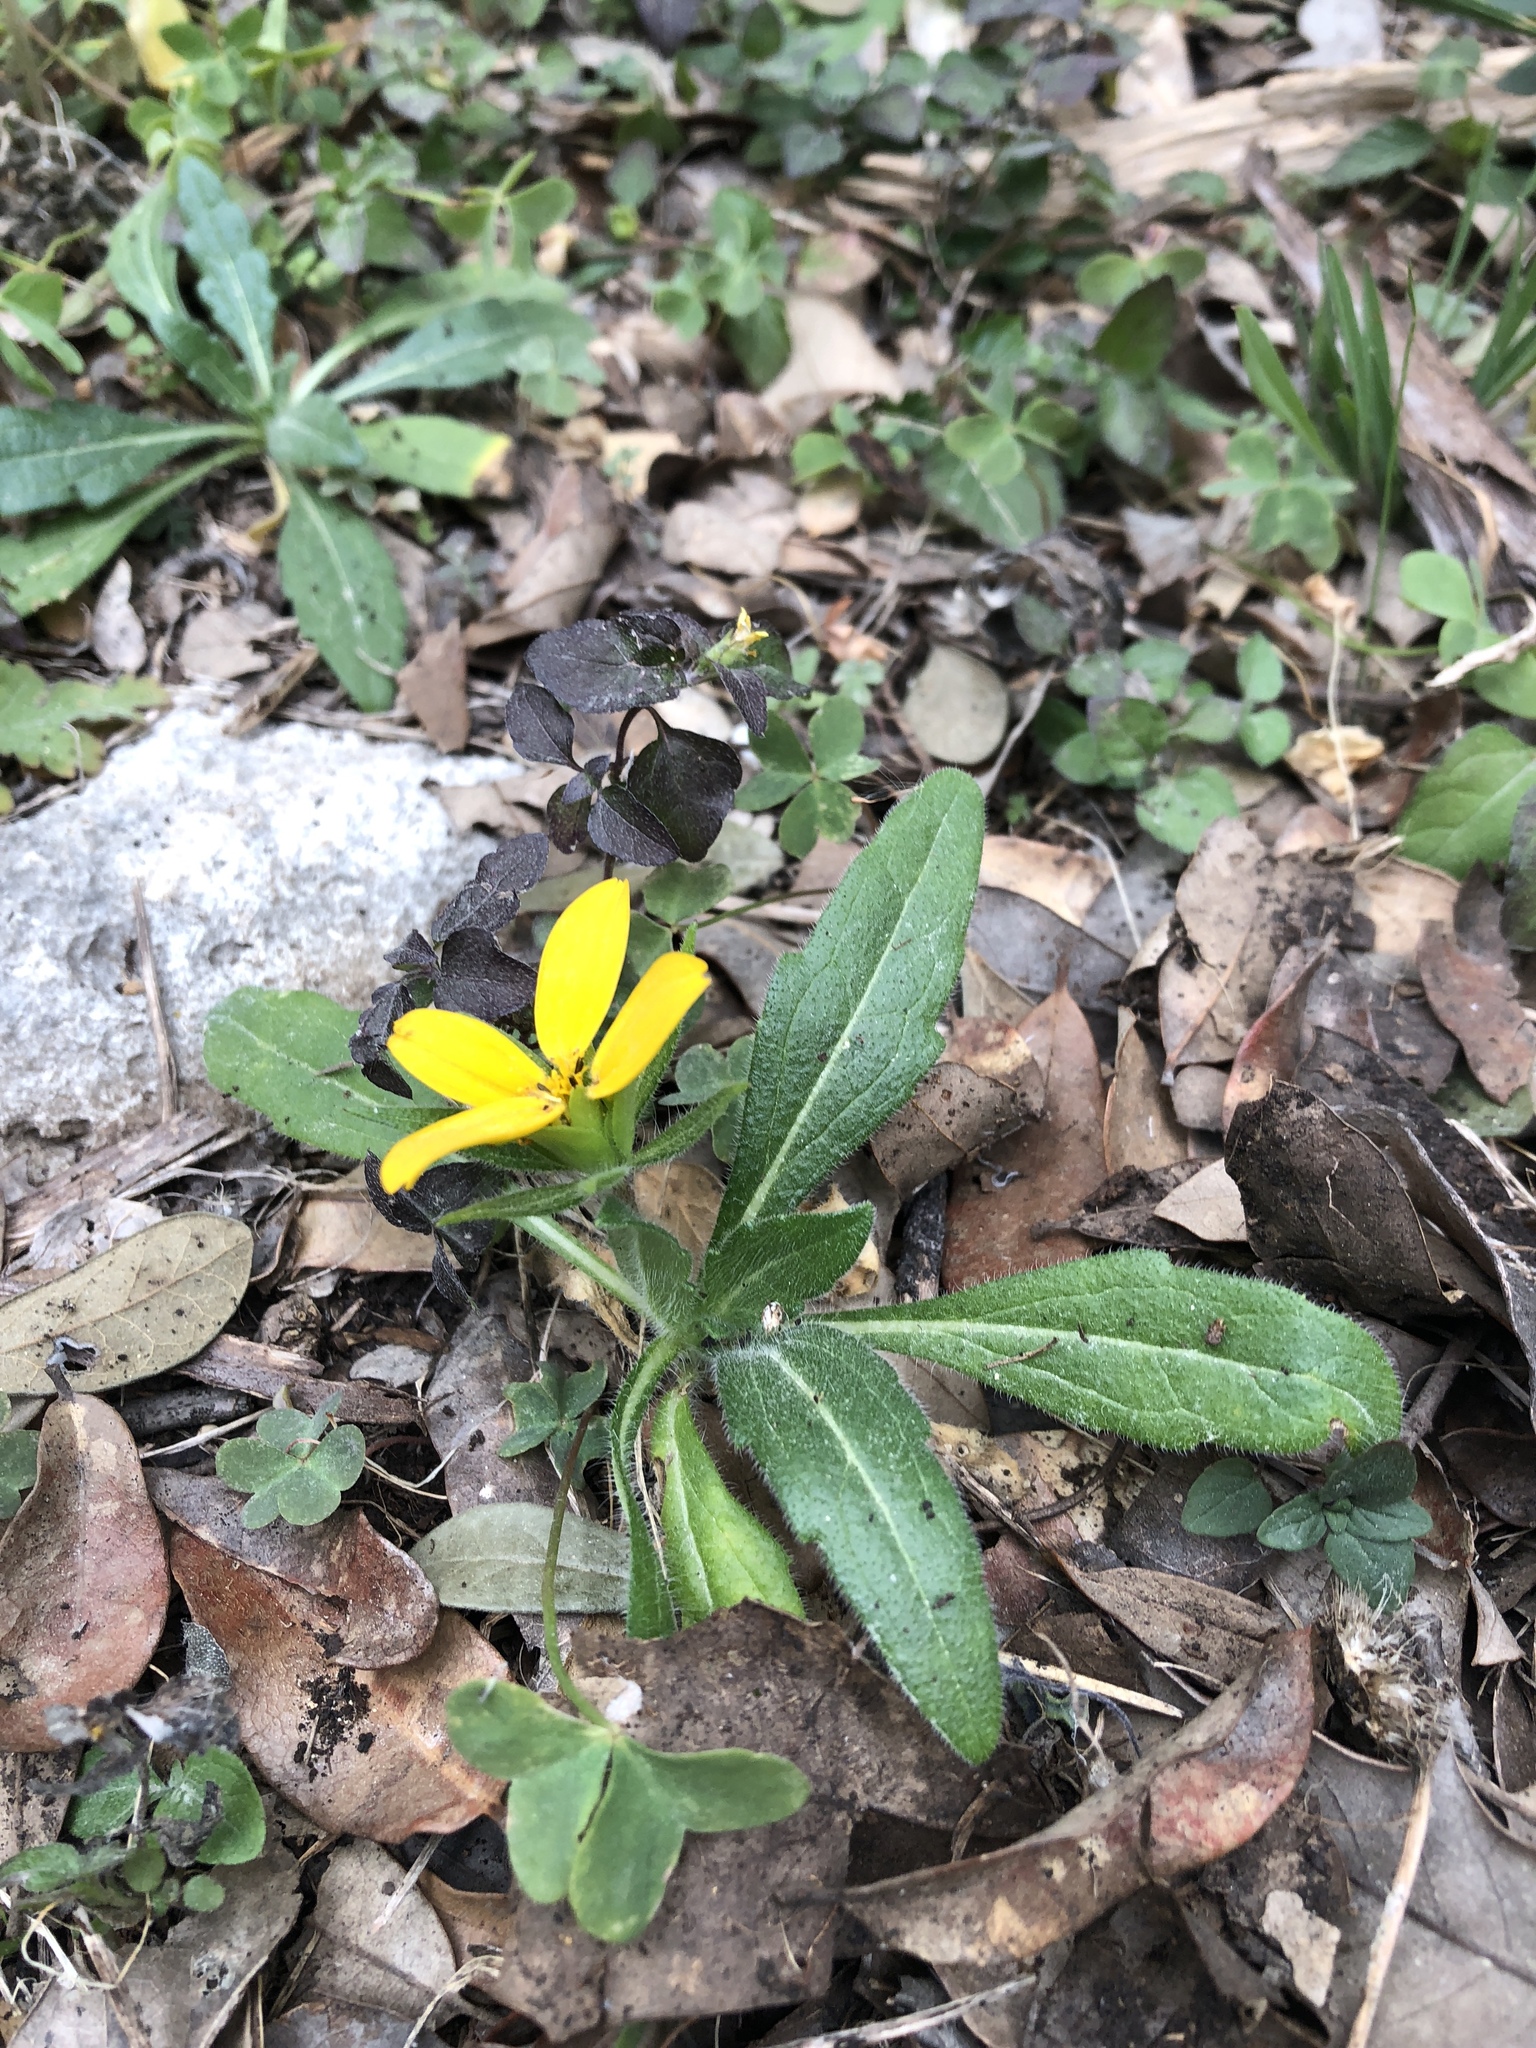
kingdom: Plantae
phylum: Tracheophyta
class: Magnoliopsida
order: Asterales
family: Asteraceae
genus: Lindheimera
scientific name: Lindheimera texana
